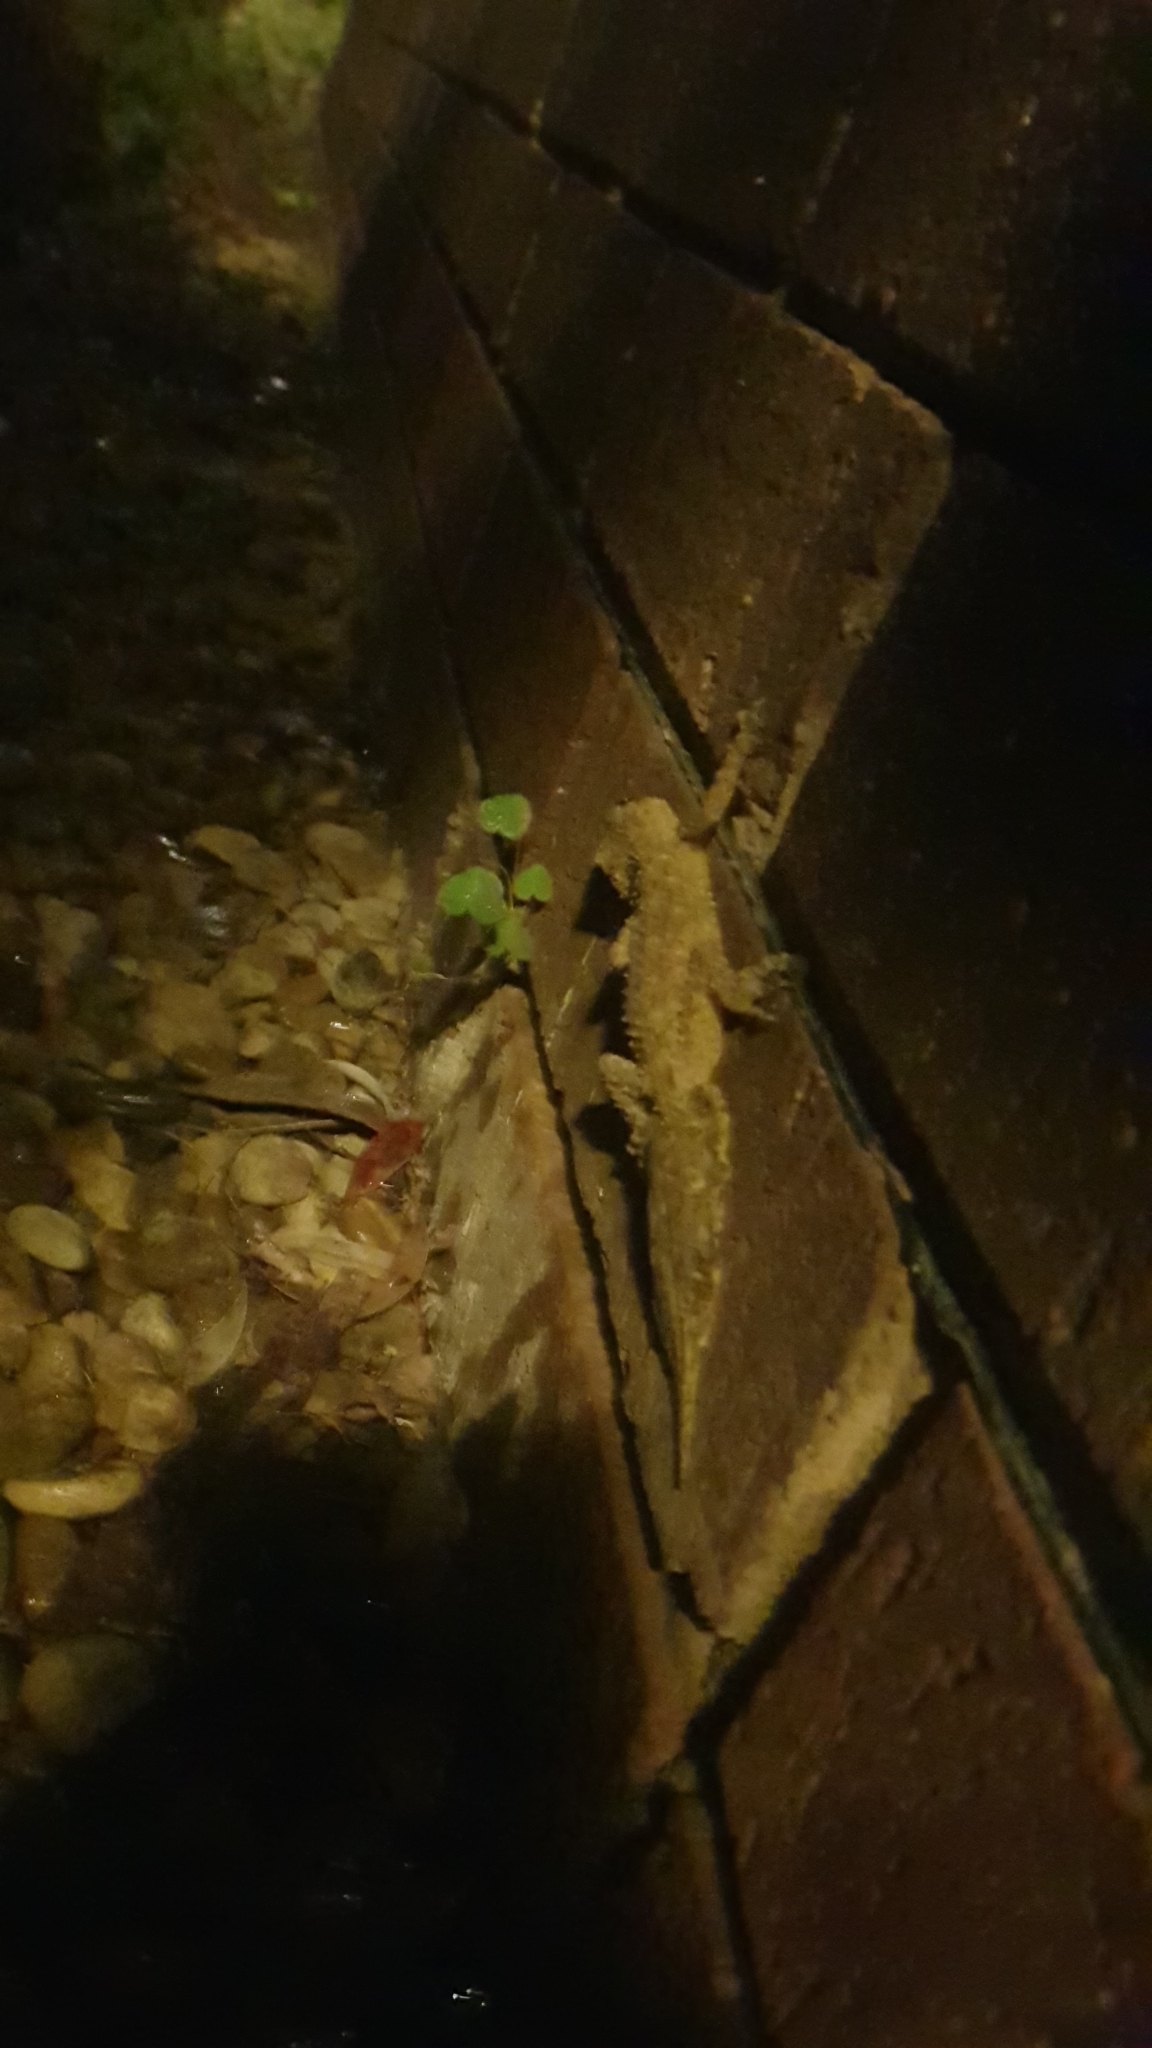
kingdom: Animalia
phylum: Chordata
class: Squamata
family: Carphodactylidae
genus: Phyllurus
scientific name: Phyllurus platurus
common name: Broad-tailed gecko
